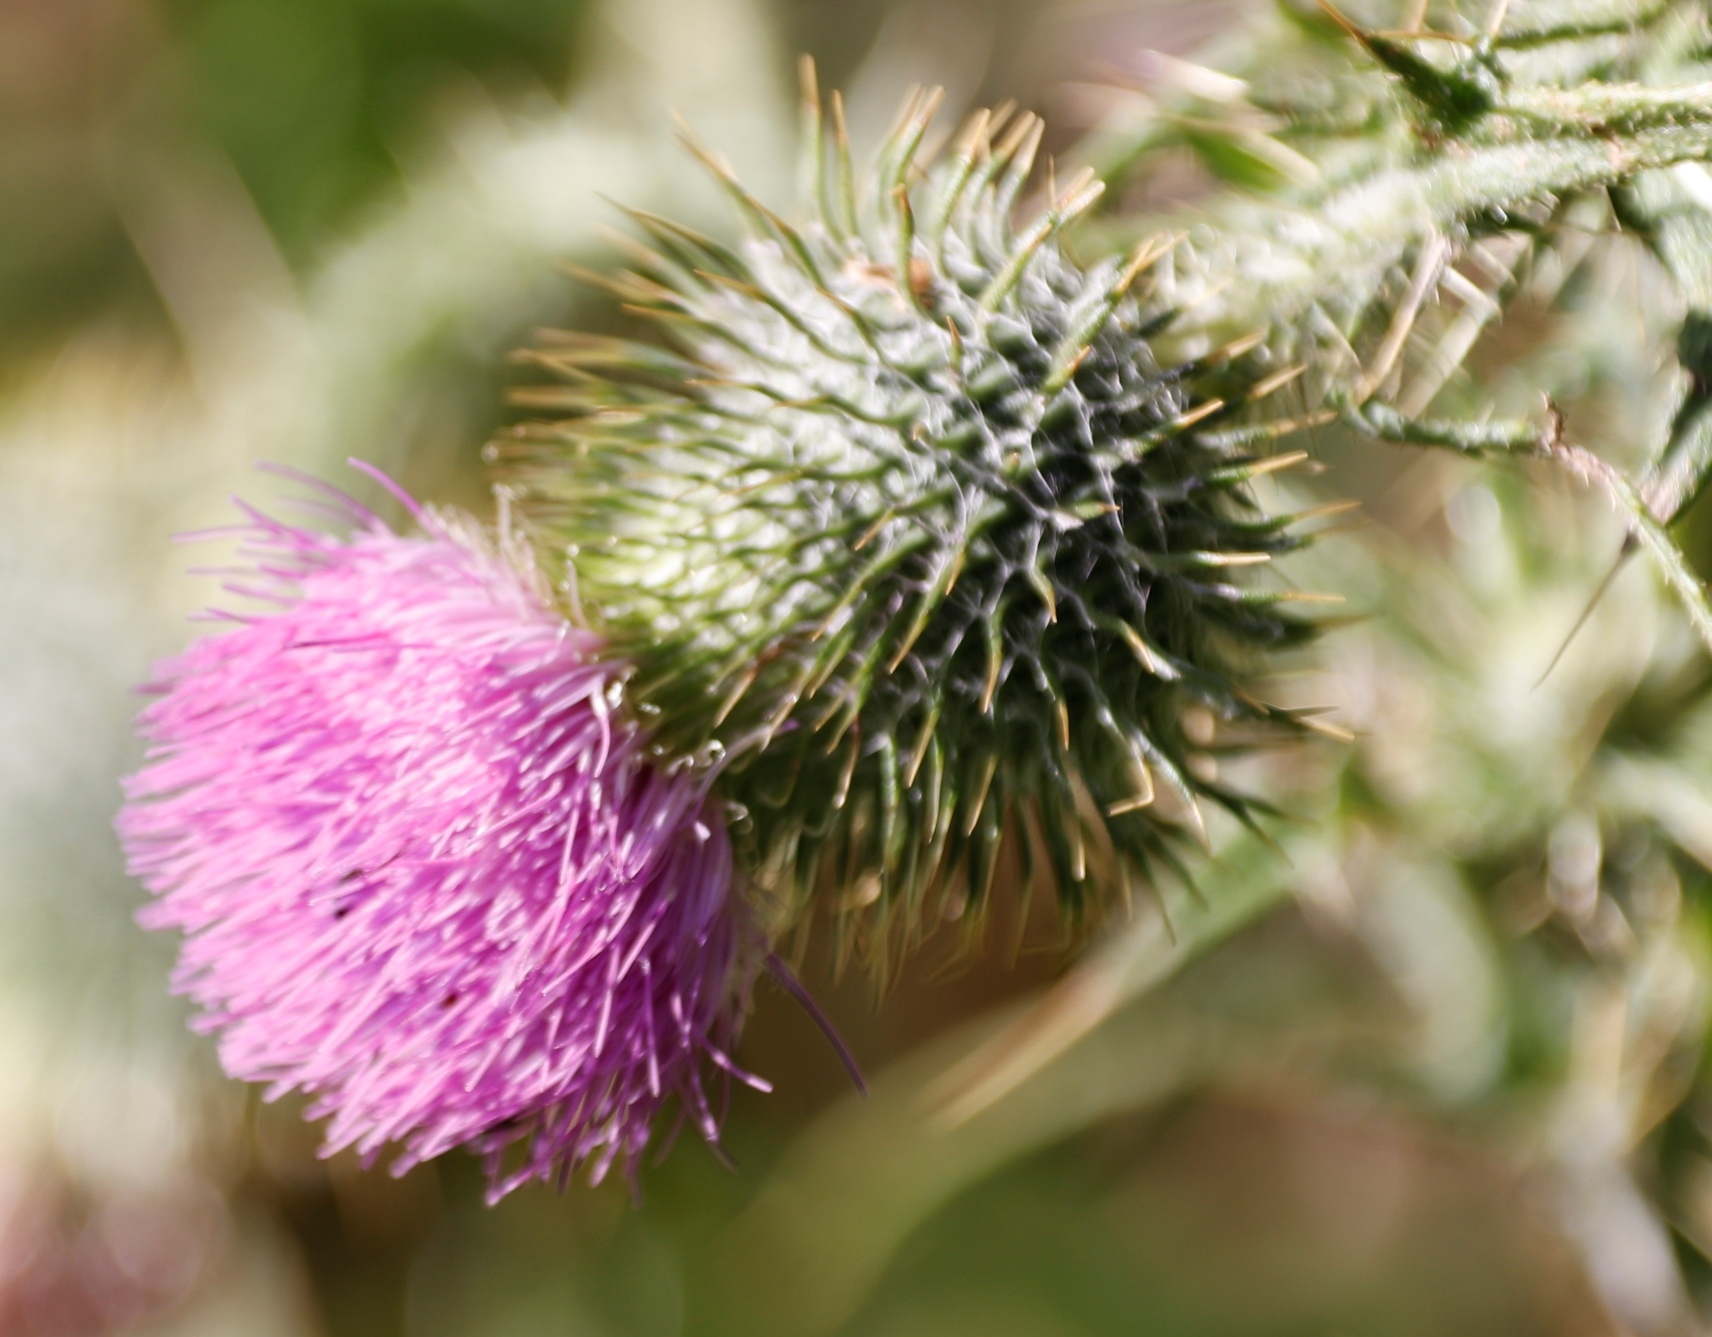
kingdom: Plantae
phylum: Tracheophyta
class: Magnoliopsida
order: Asterales
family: Asteraceae
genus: Cirsium
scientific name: Cirsium vulgare
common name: Bull thistle
